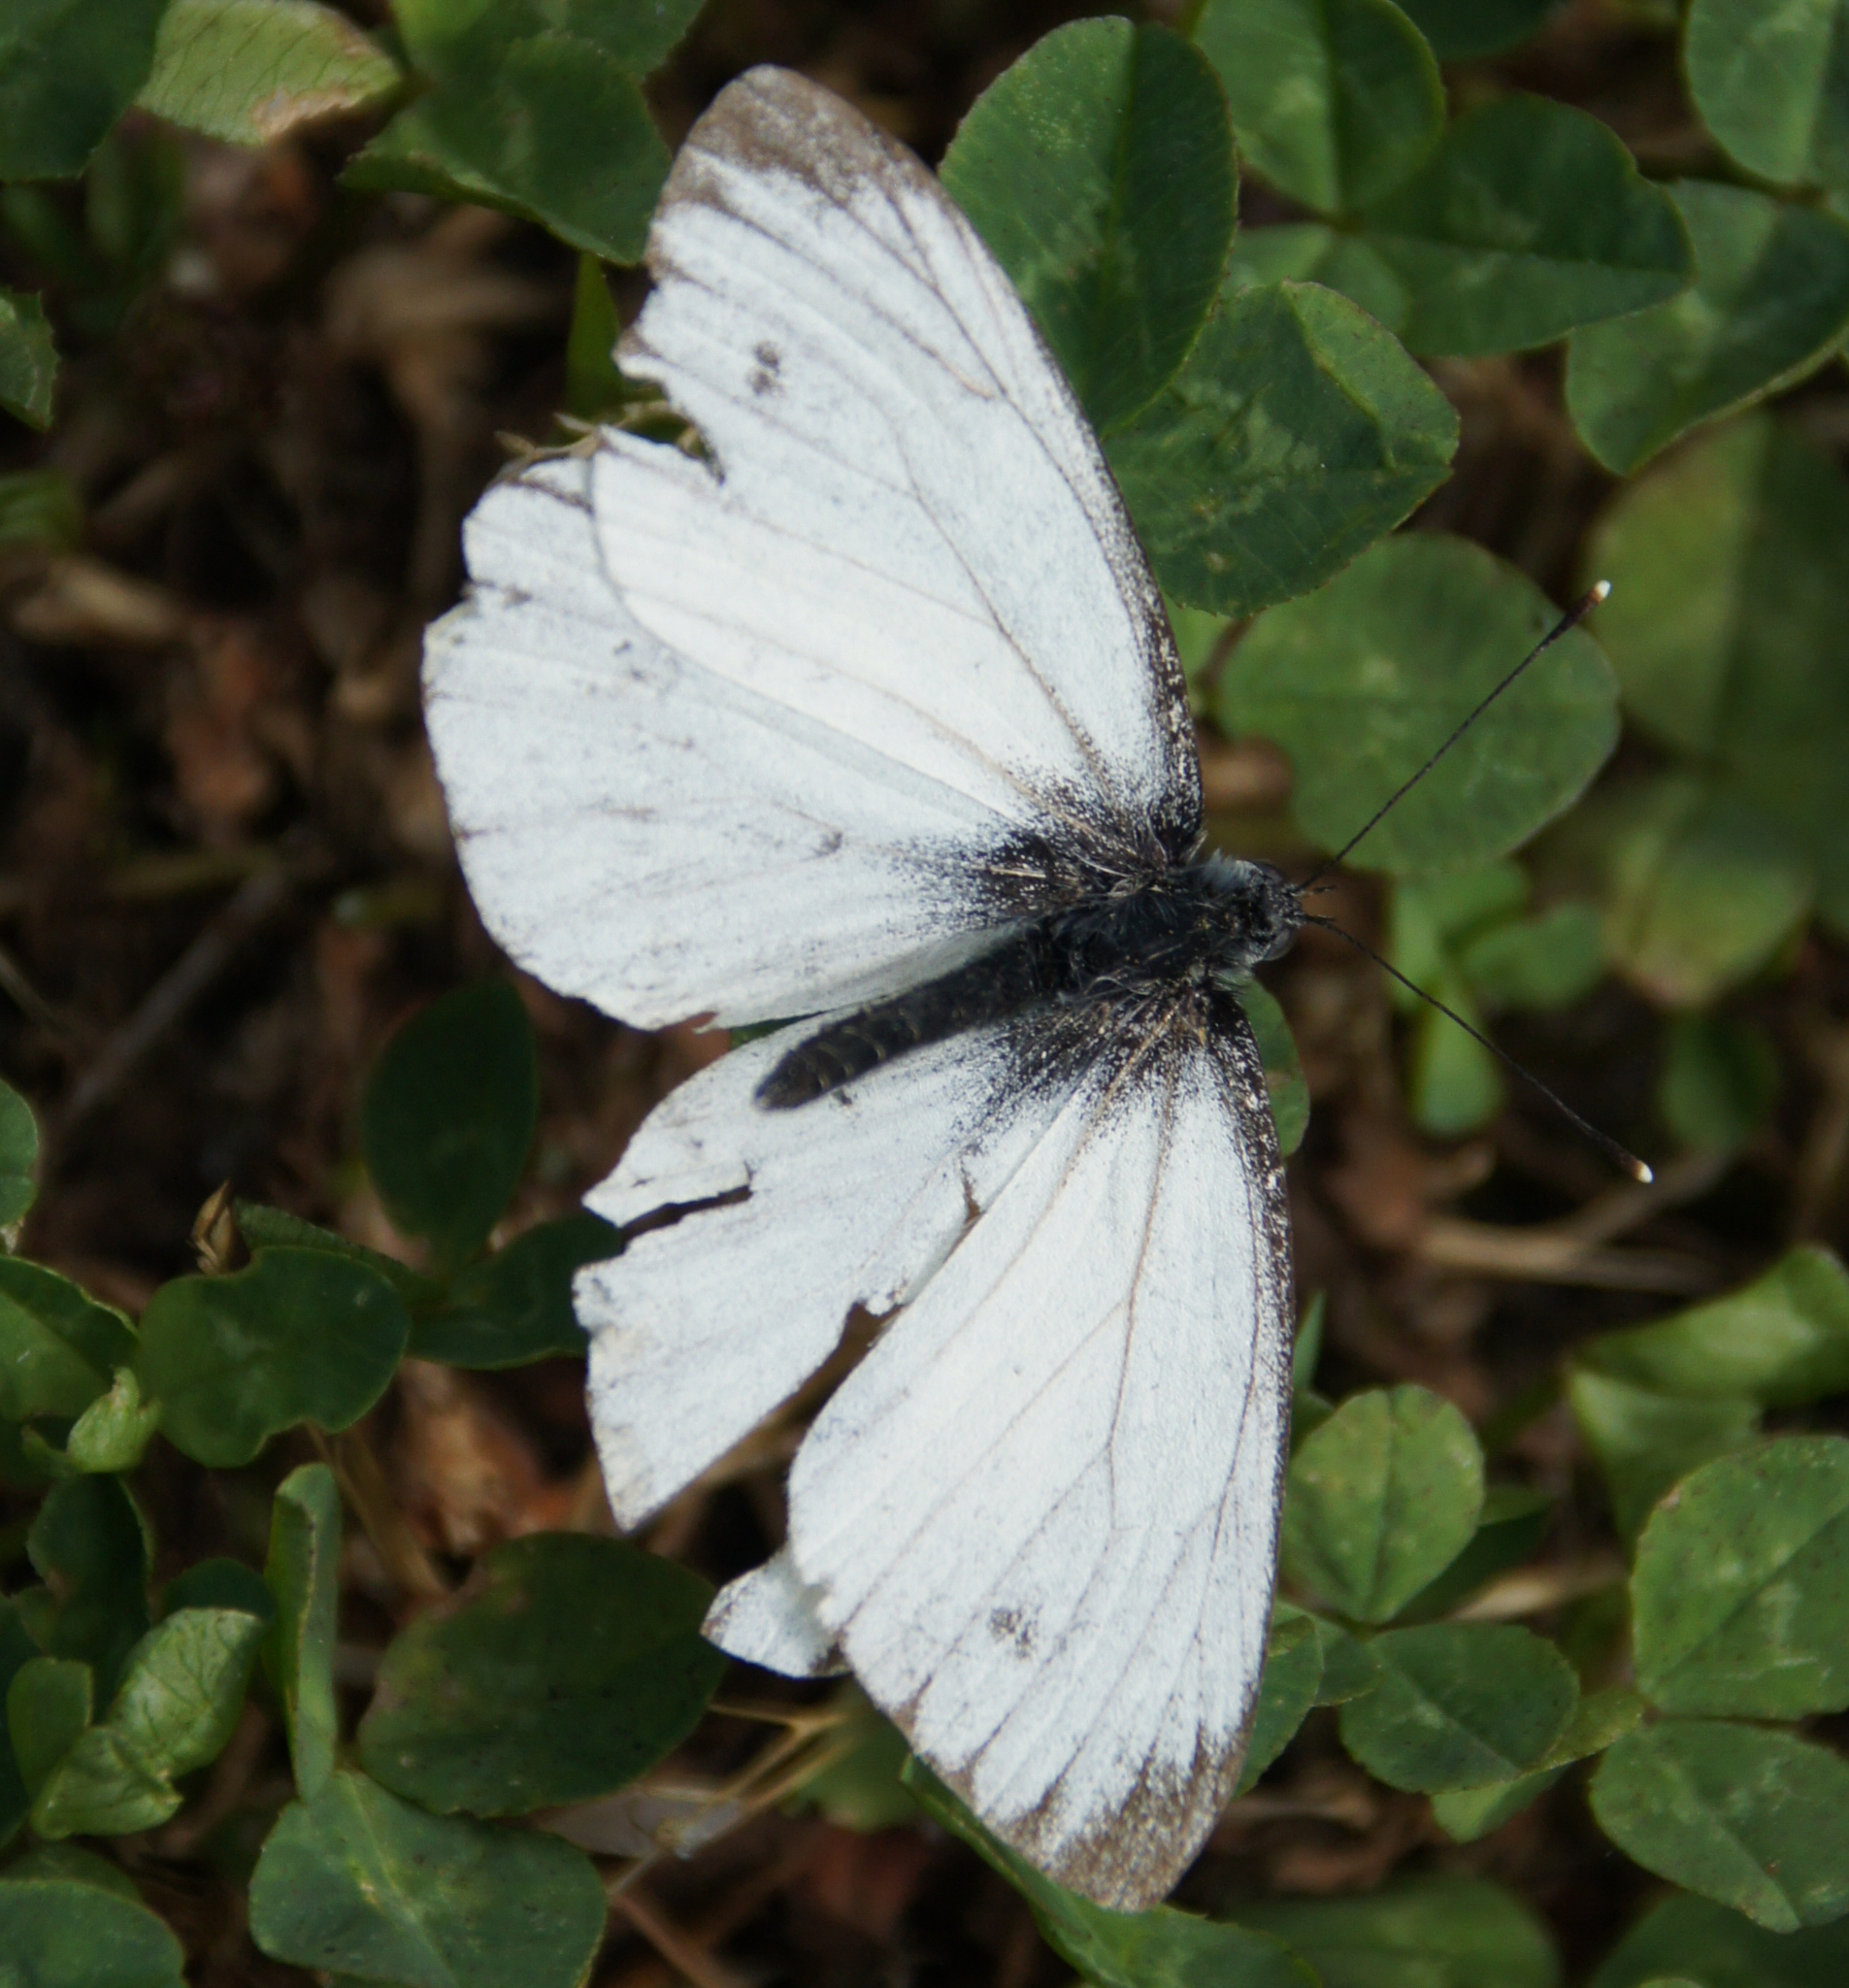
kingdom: Animalia
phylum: Arthropoda
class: Insecta
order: Lepidoptera
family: Pieridae
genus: Pieris
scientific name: Pieris napi
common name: Green-veined white
